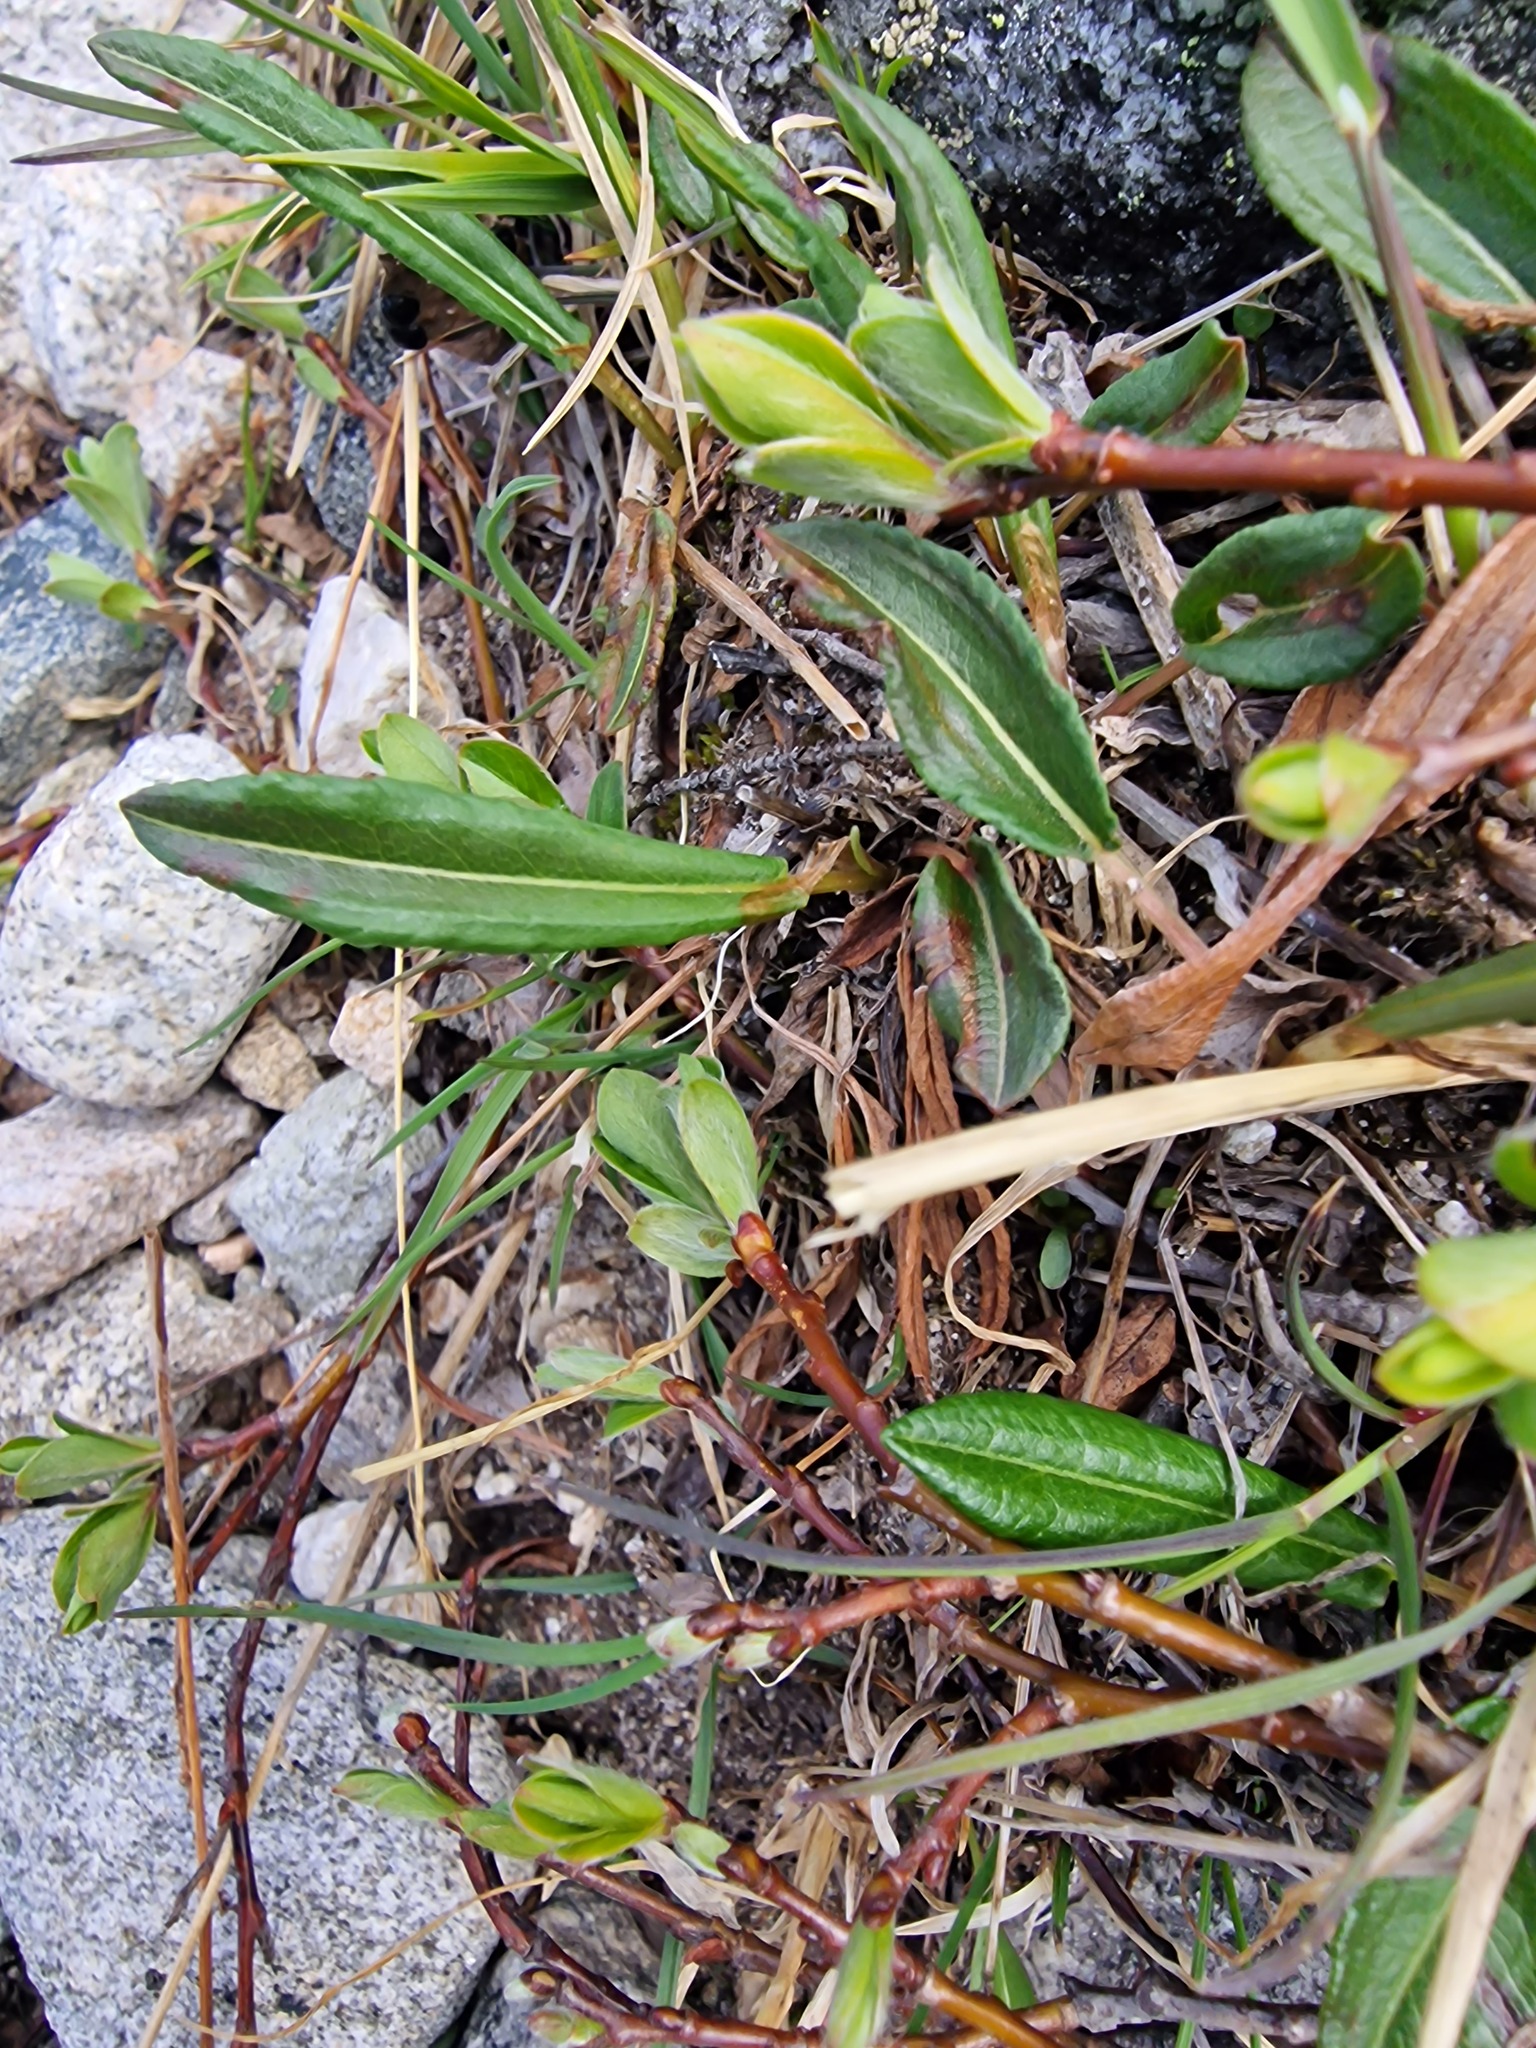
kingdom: Plantae
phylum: Tracheophyta
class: Magnoliopsida
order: Caryophyllales
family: Polygonaceae
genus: Bistorta
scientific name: Bistorta vivipara
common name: Alpine bistort
